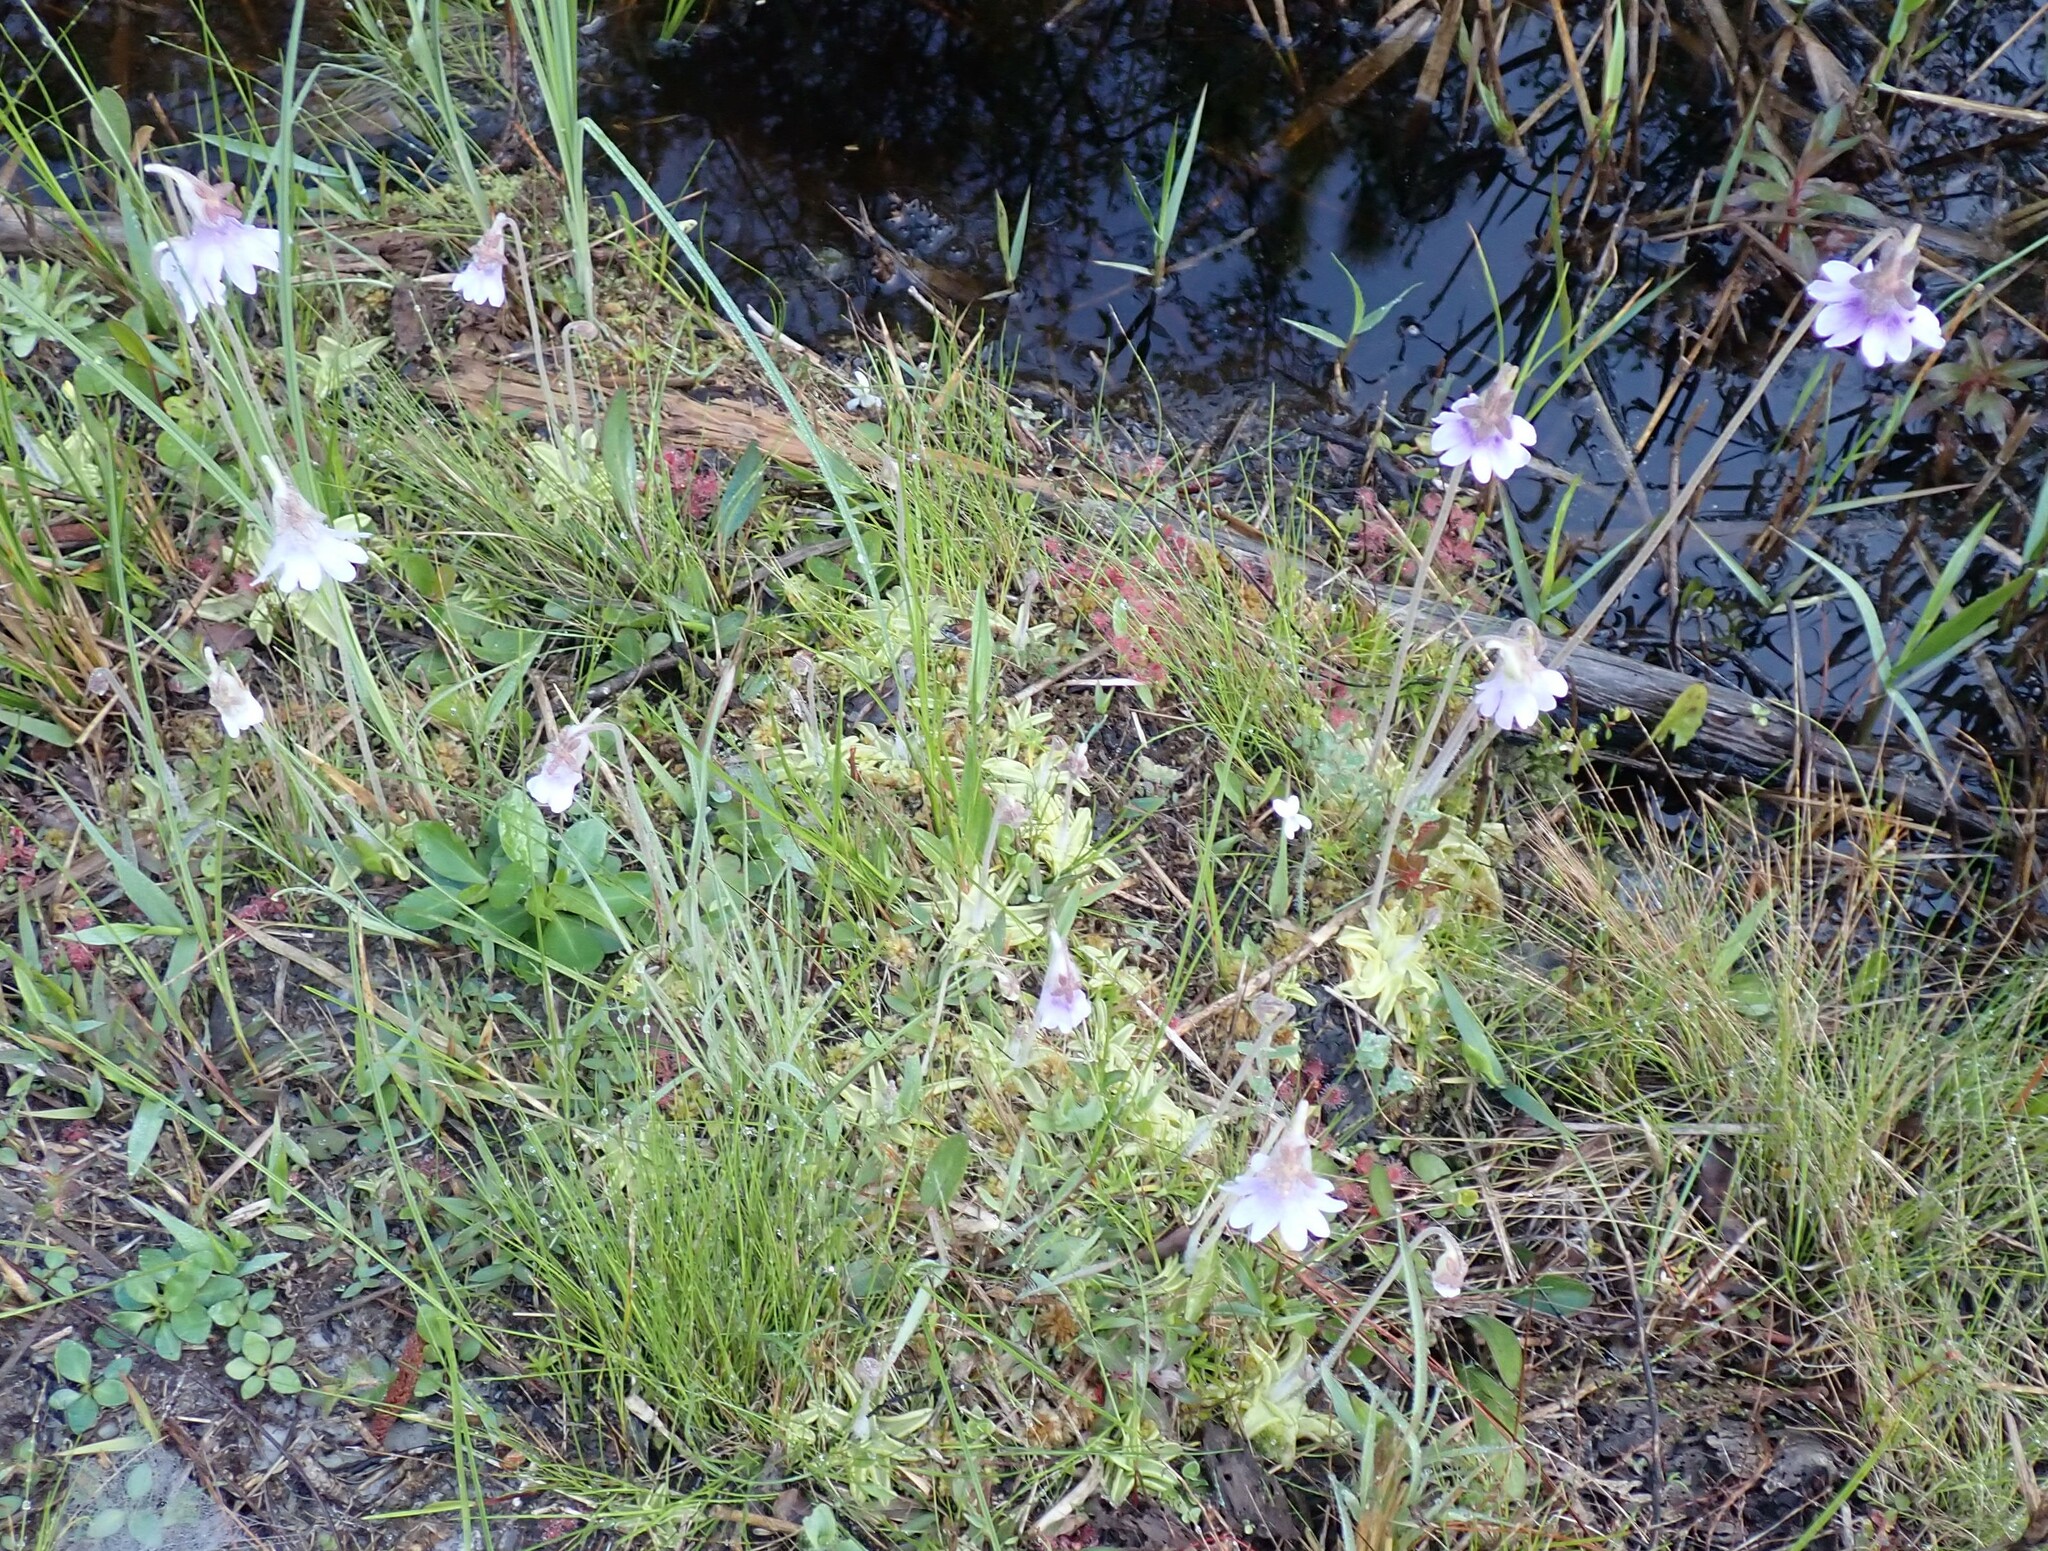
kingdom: Plantae
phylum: Tracheophyta
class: Magnoliopsida
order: Lamiales
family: Lentibulariaceae
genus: Pinguicula
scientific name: Pinguicula caerulea
